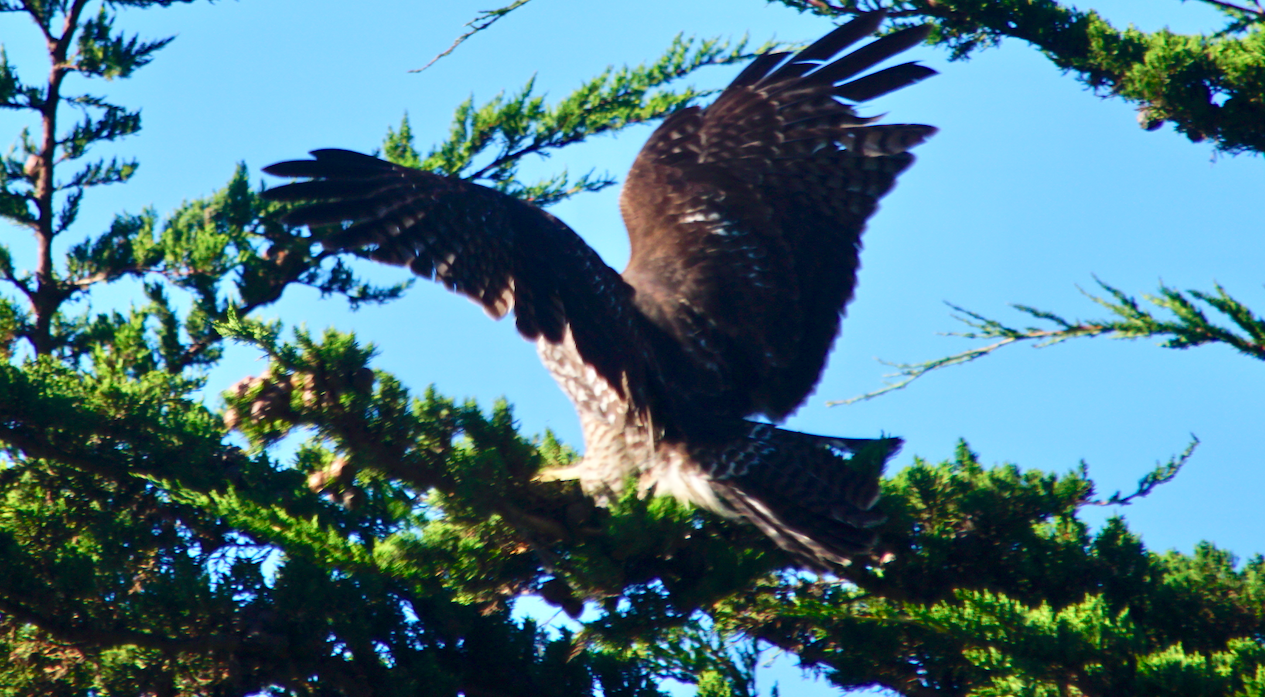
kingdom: Animalia
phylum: Chordata
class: Aves
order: Accipitriformes
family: Accipitridae
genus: Buteo
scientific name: Buteo jamaicensis
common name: Red-tailed hawk
